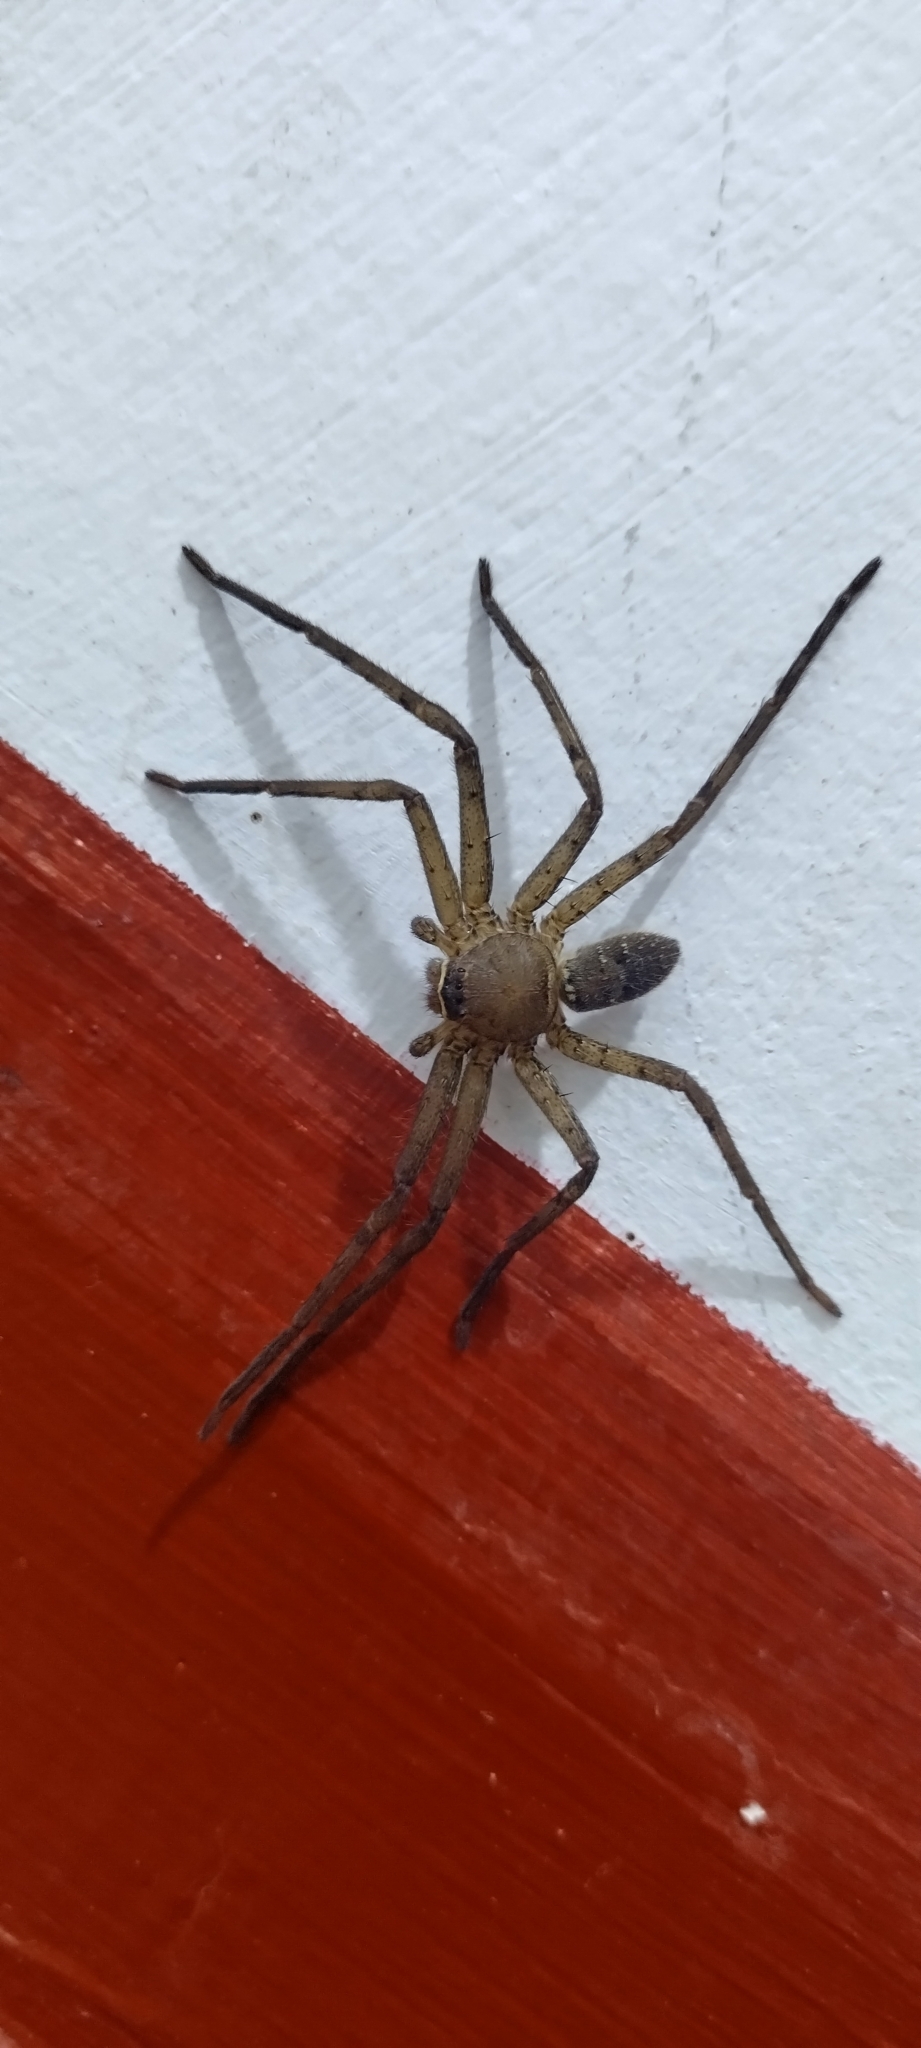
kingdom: Animalia
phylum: Arthropoda
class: Arachnida
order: Araneae
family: Sparassidae
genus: Heteropoda
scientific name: Heteropoda venatoria
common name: Huntsman spider
